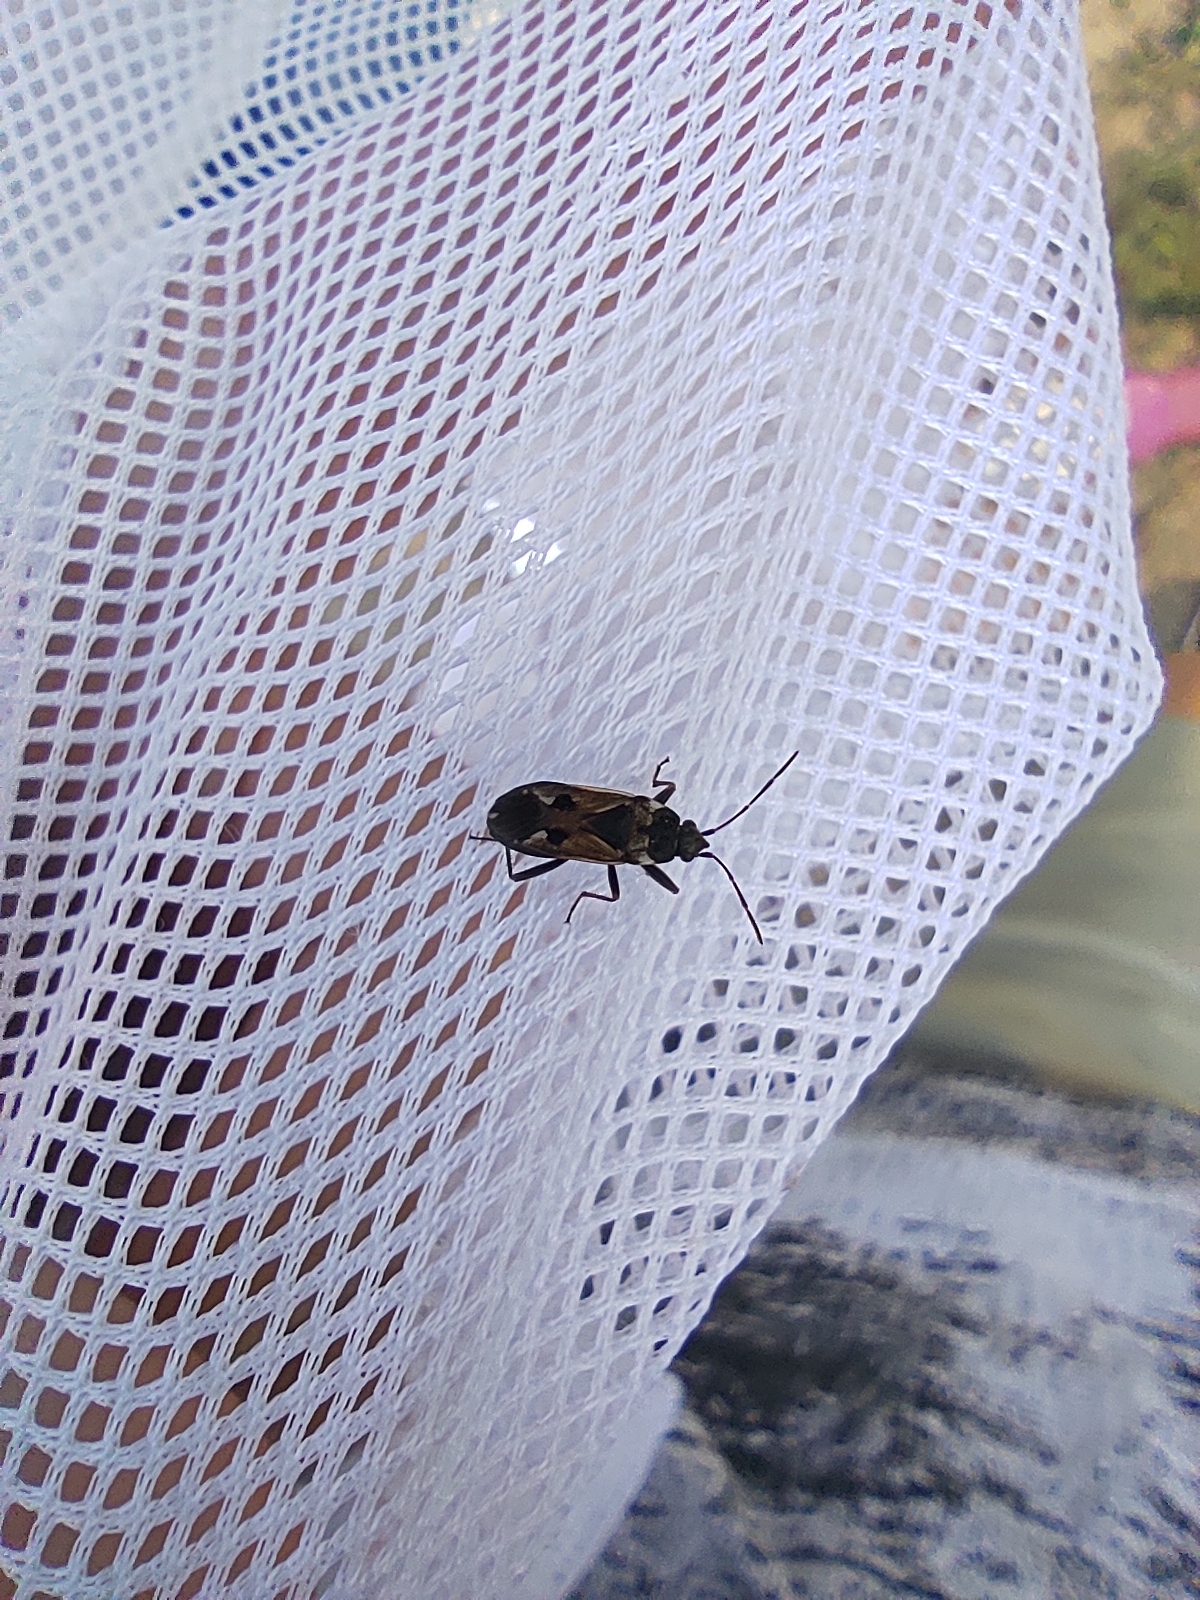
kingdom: Animalia
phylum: Arthropoda
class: Insecta
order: Hemiptera
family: Rhyparochromidae
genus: Rhyparochromus
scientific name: Rhyparochromus vulgaris
